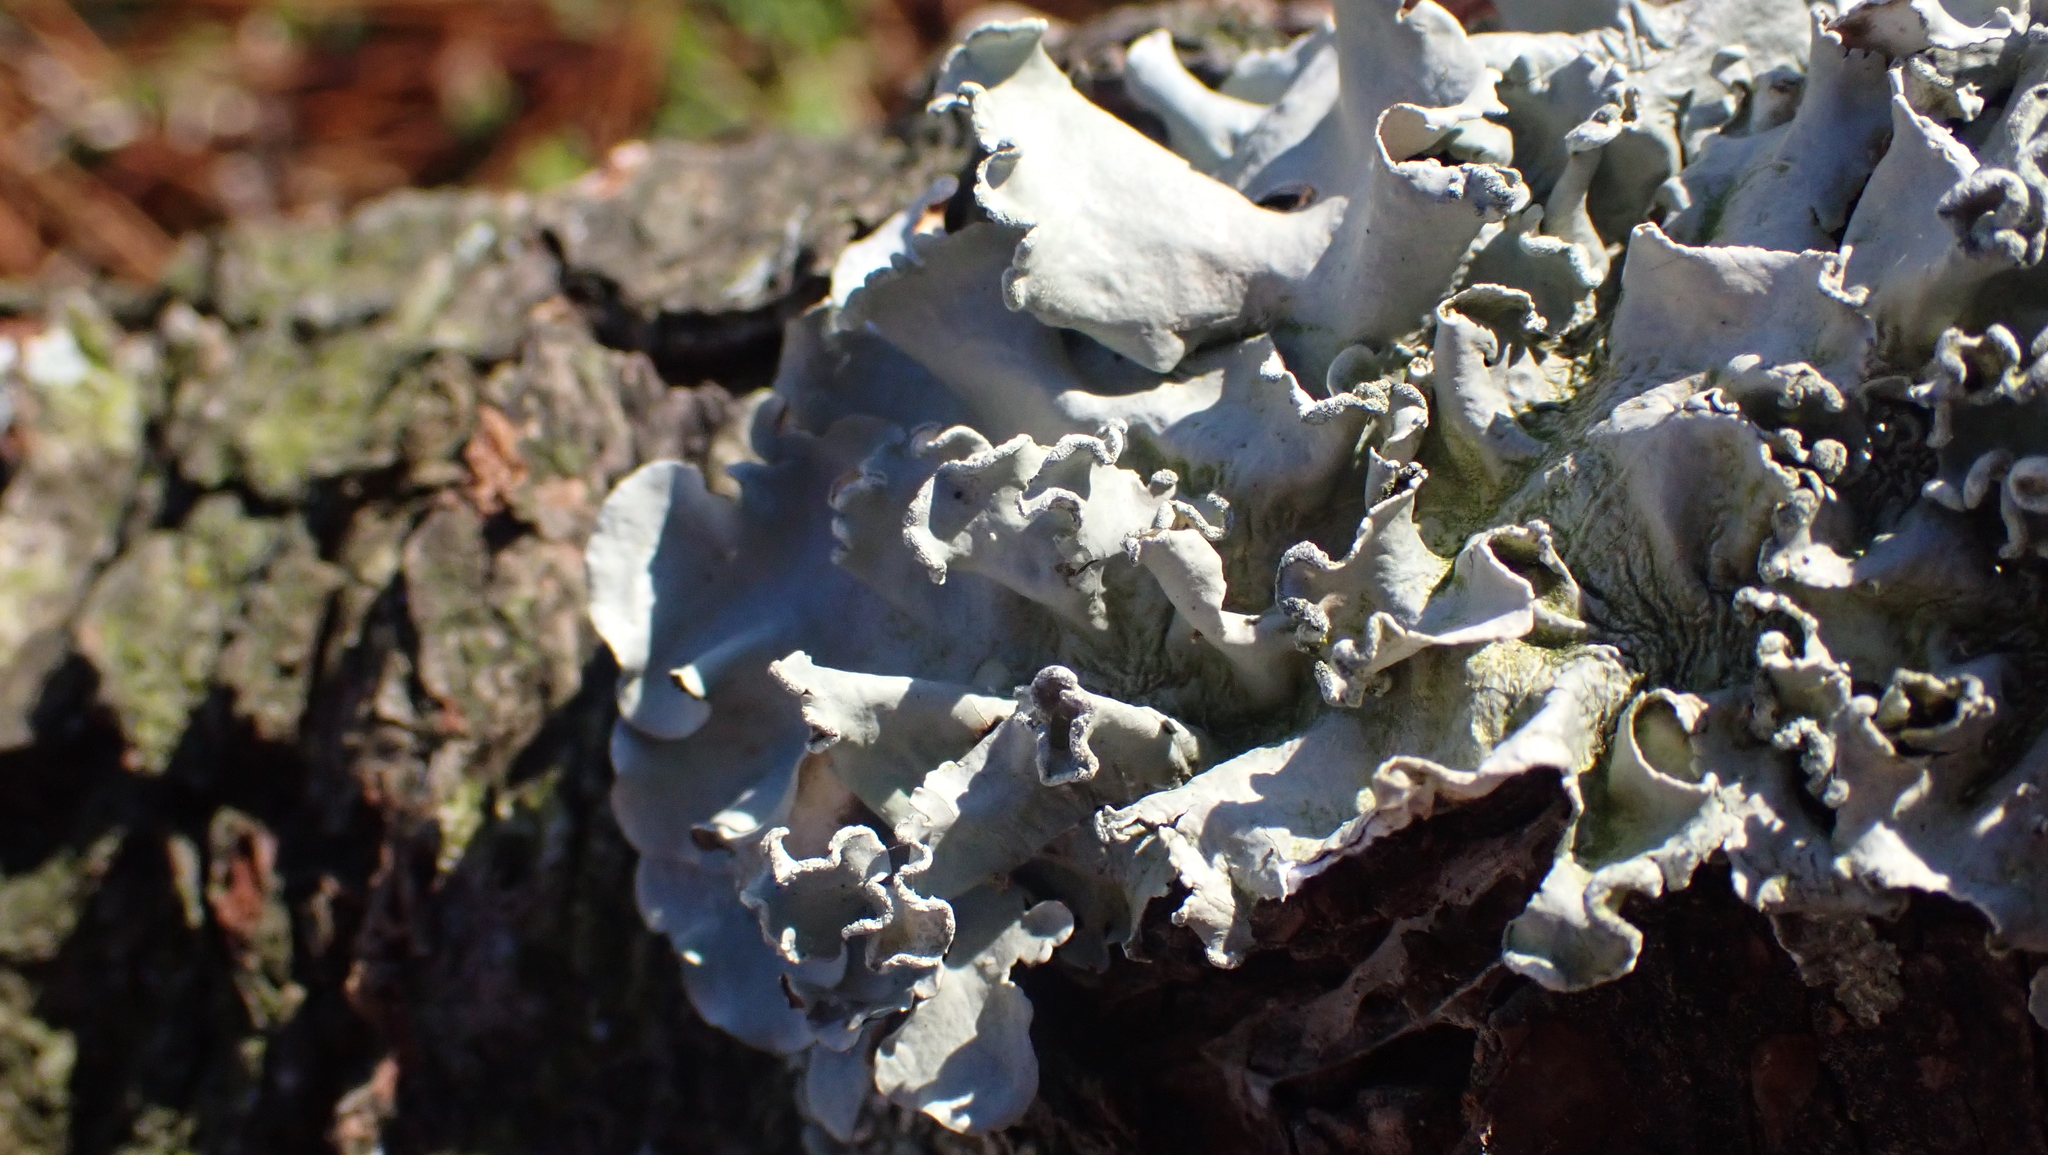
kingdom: Fungi
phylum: Ascomycota
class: Lecanoromycetes
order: Lecanorales
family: Parmeliaceae
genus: Parmotrema
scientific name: Parmotrema austrosinense
